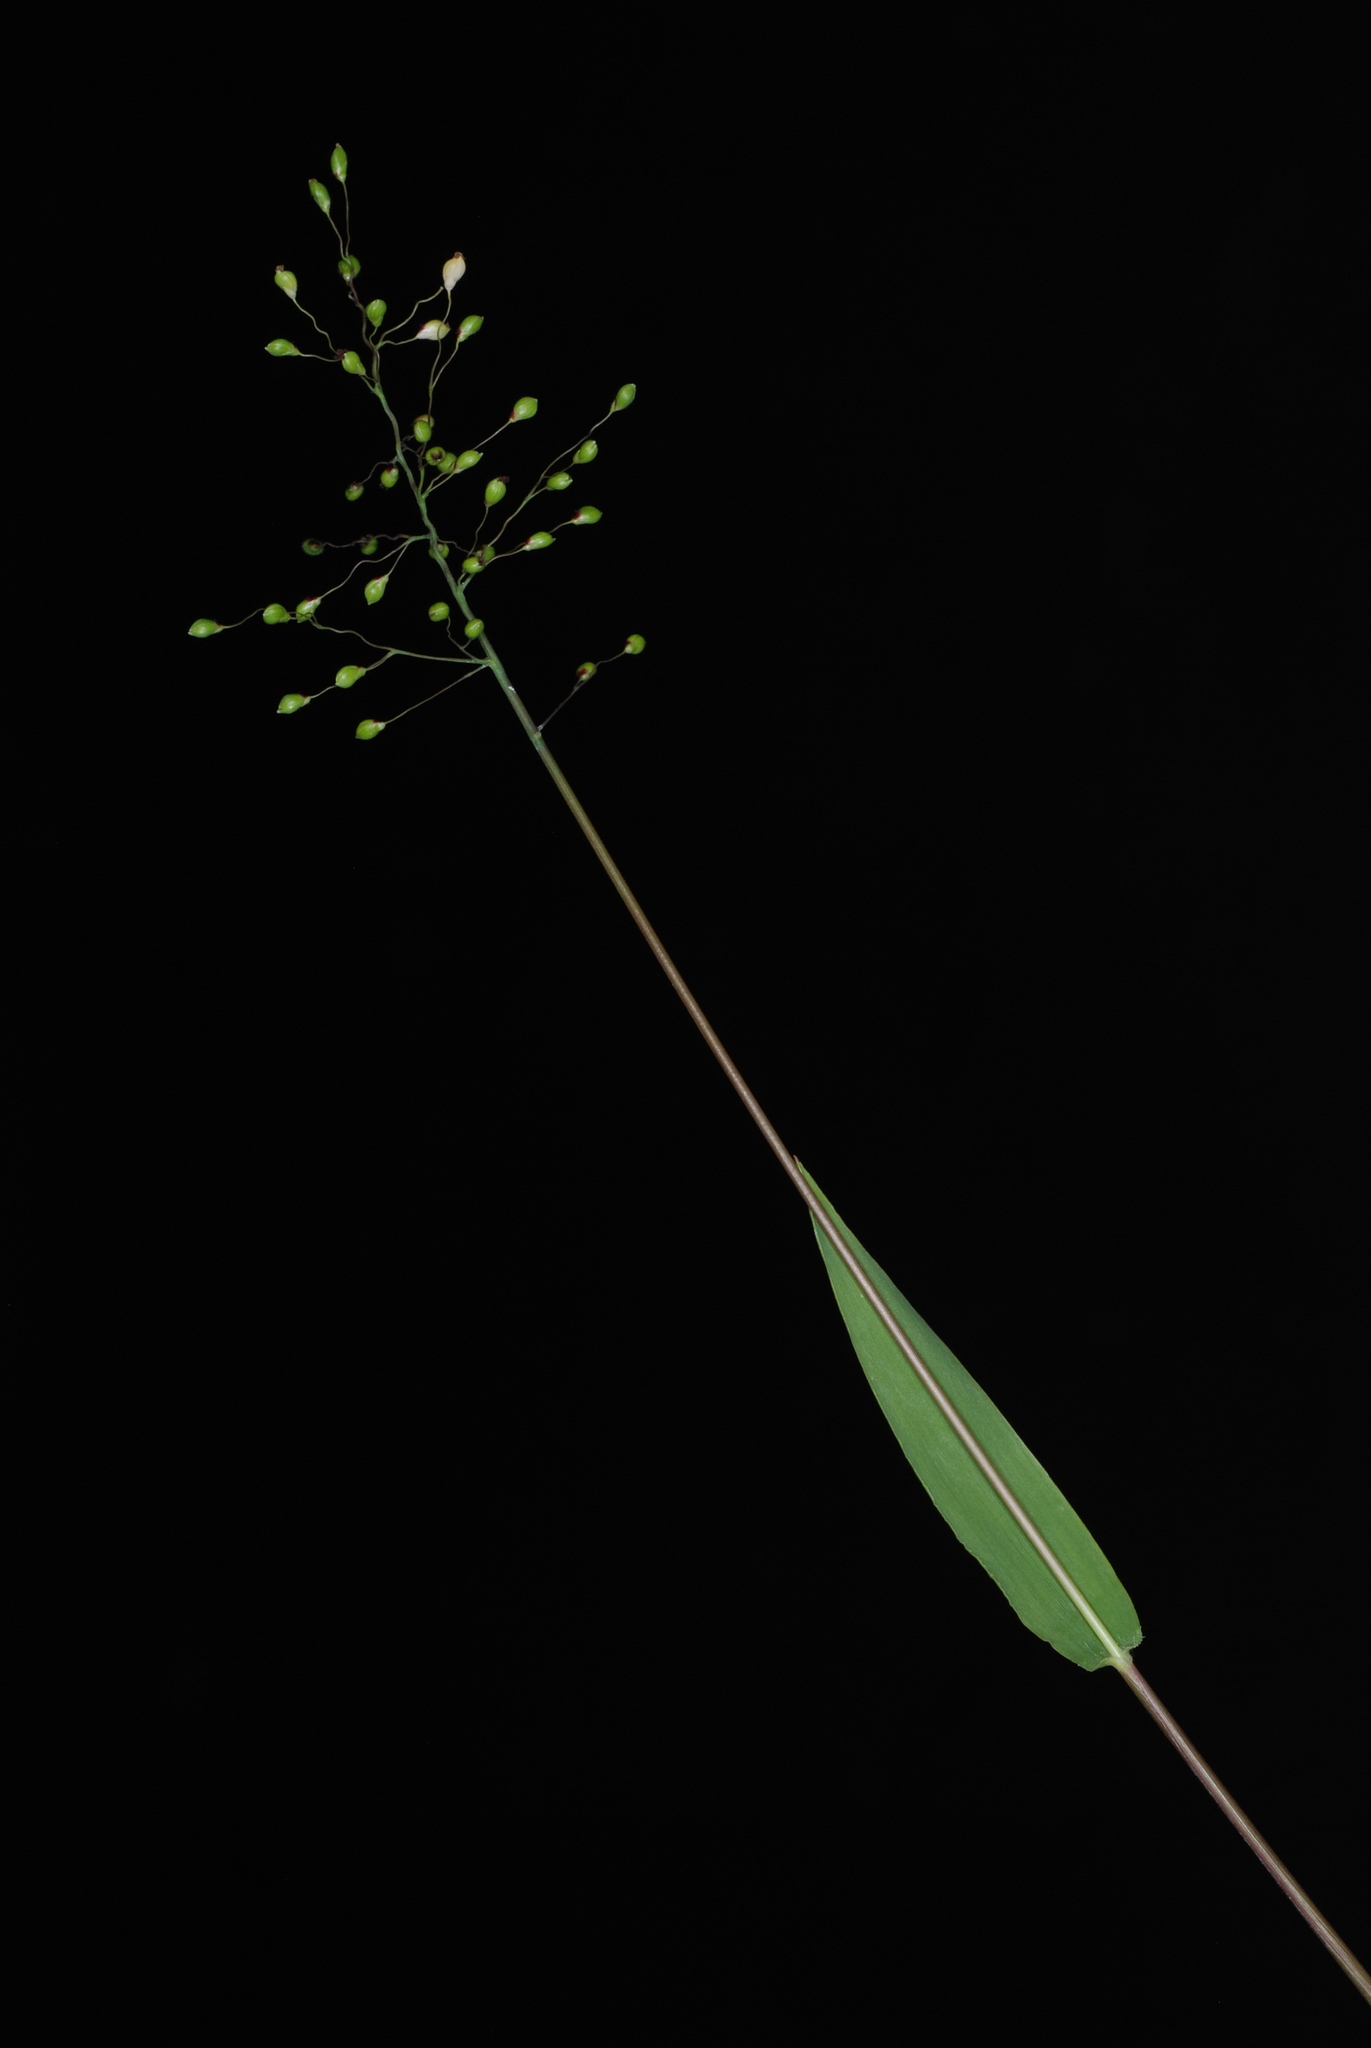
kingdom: Plantae
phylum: Tracheophyta
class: Liliopsida
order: Poales
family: Poaceae
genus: Dichanthelium
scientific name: Dichanthelium scribnerianum
